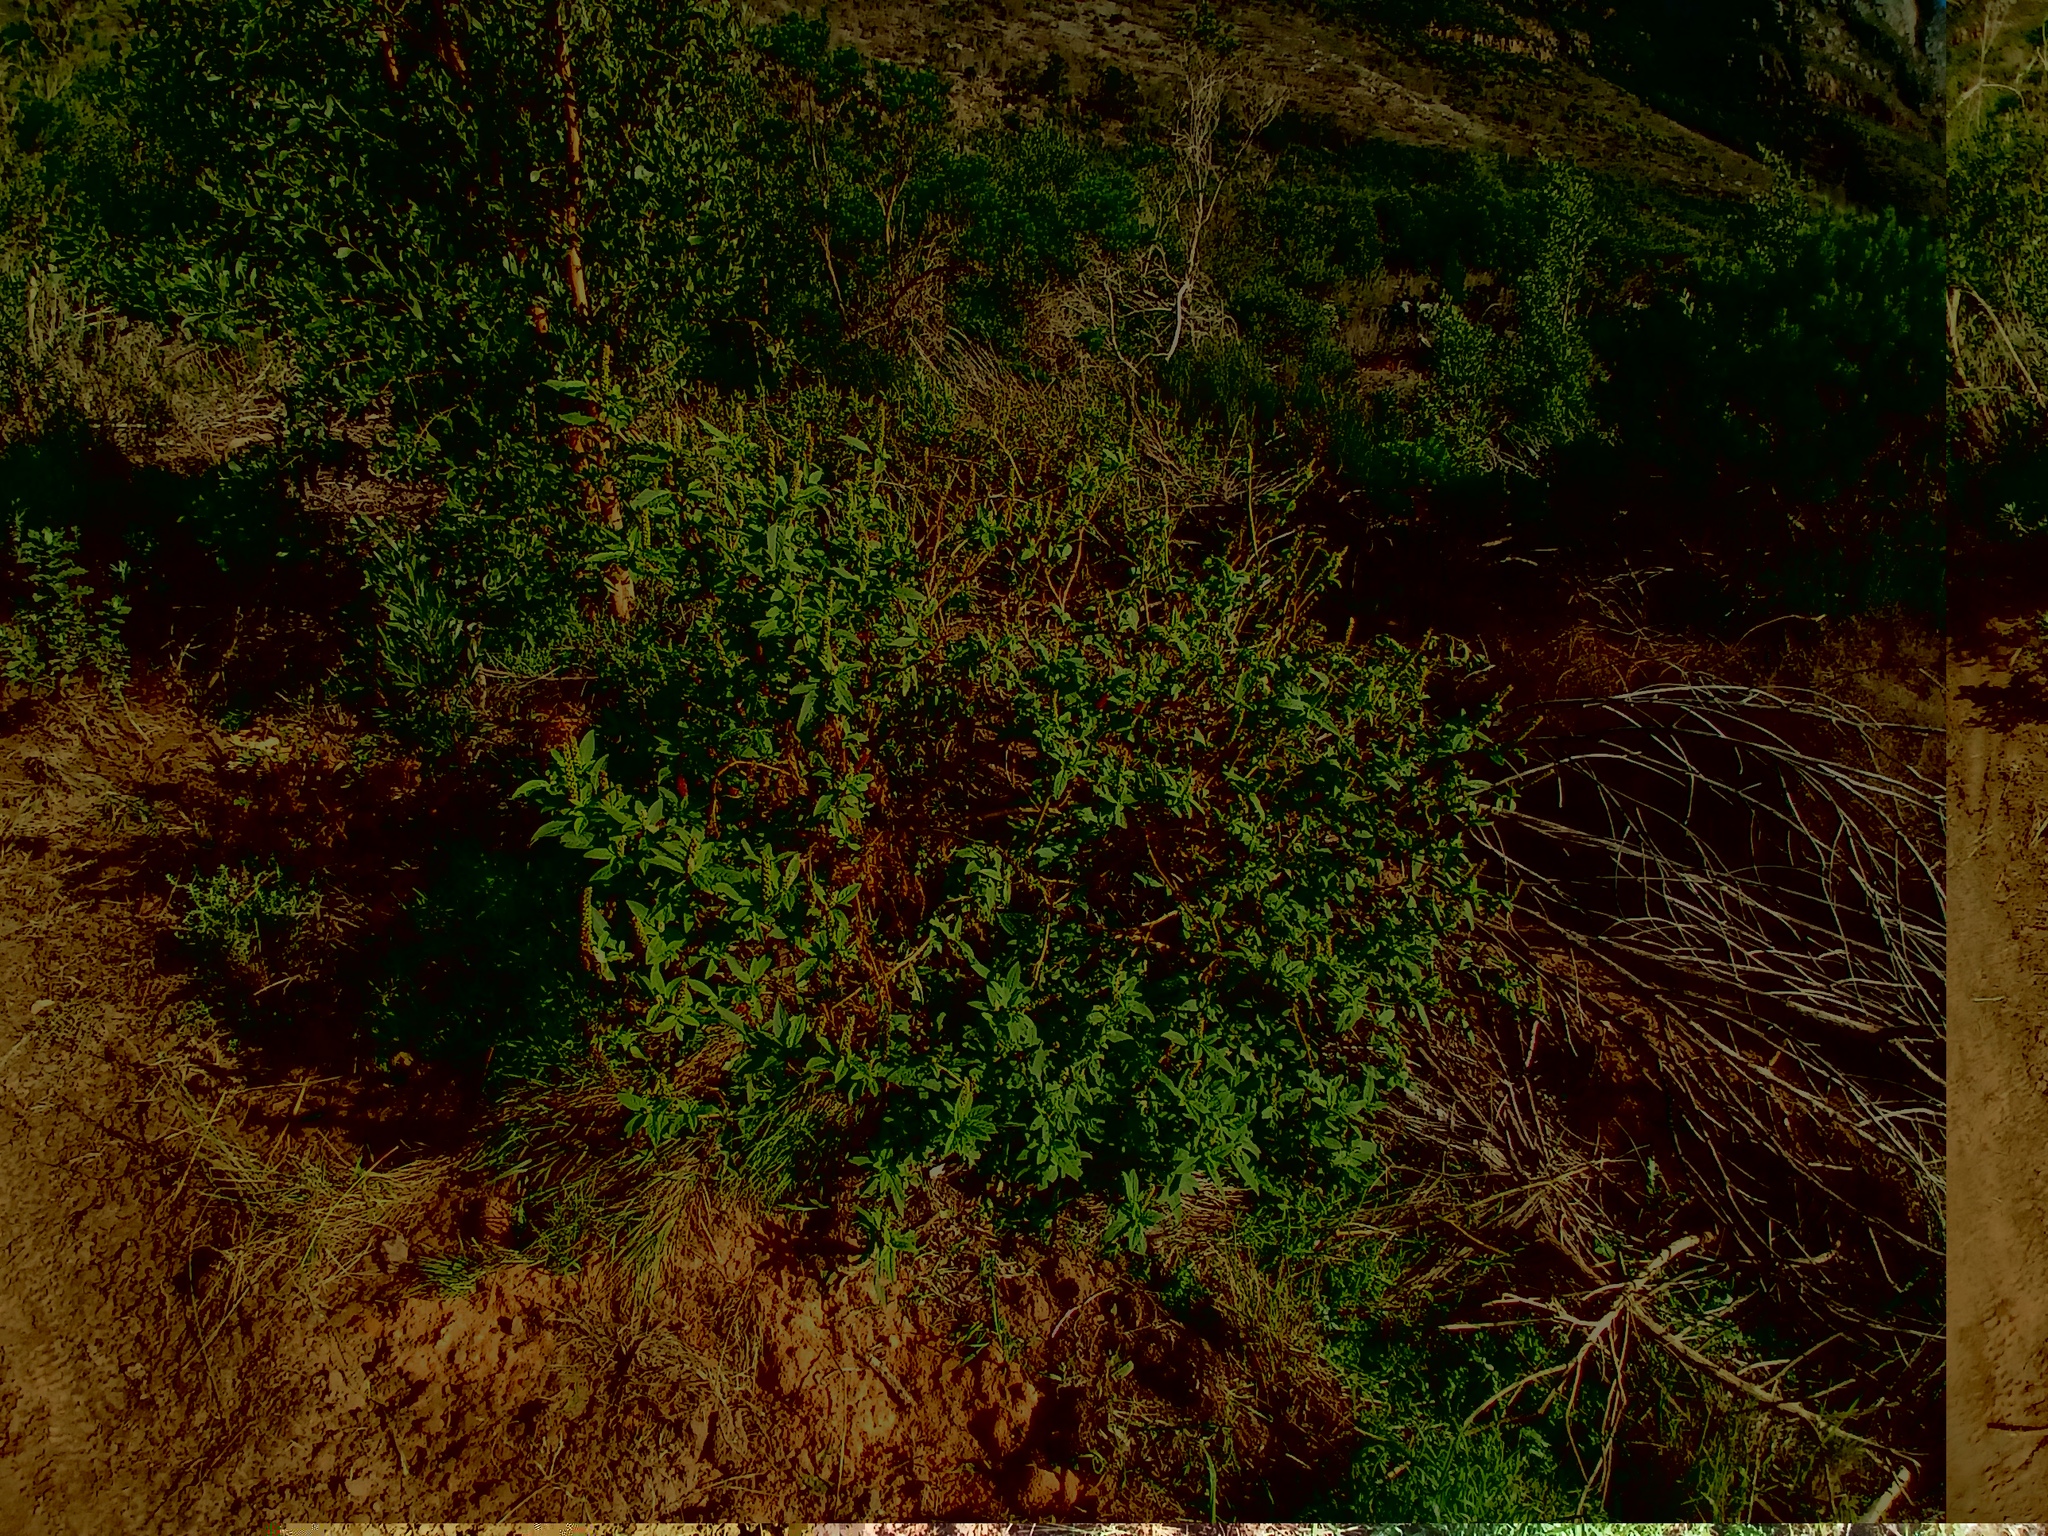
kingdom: Plantae
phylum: Tracheophyta
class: Magnoliopsida
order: Caryophyllales
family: Phytolaccaceae
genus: Phytolacca
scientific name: Phytolacca icosandra
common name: Button pokeweed
